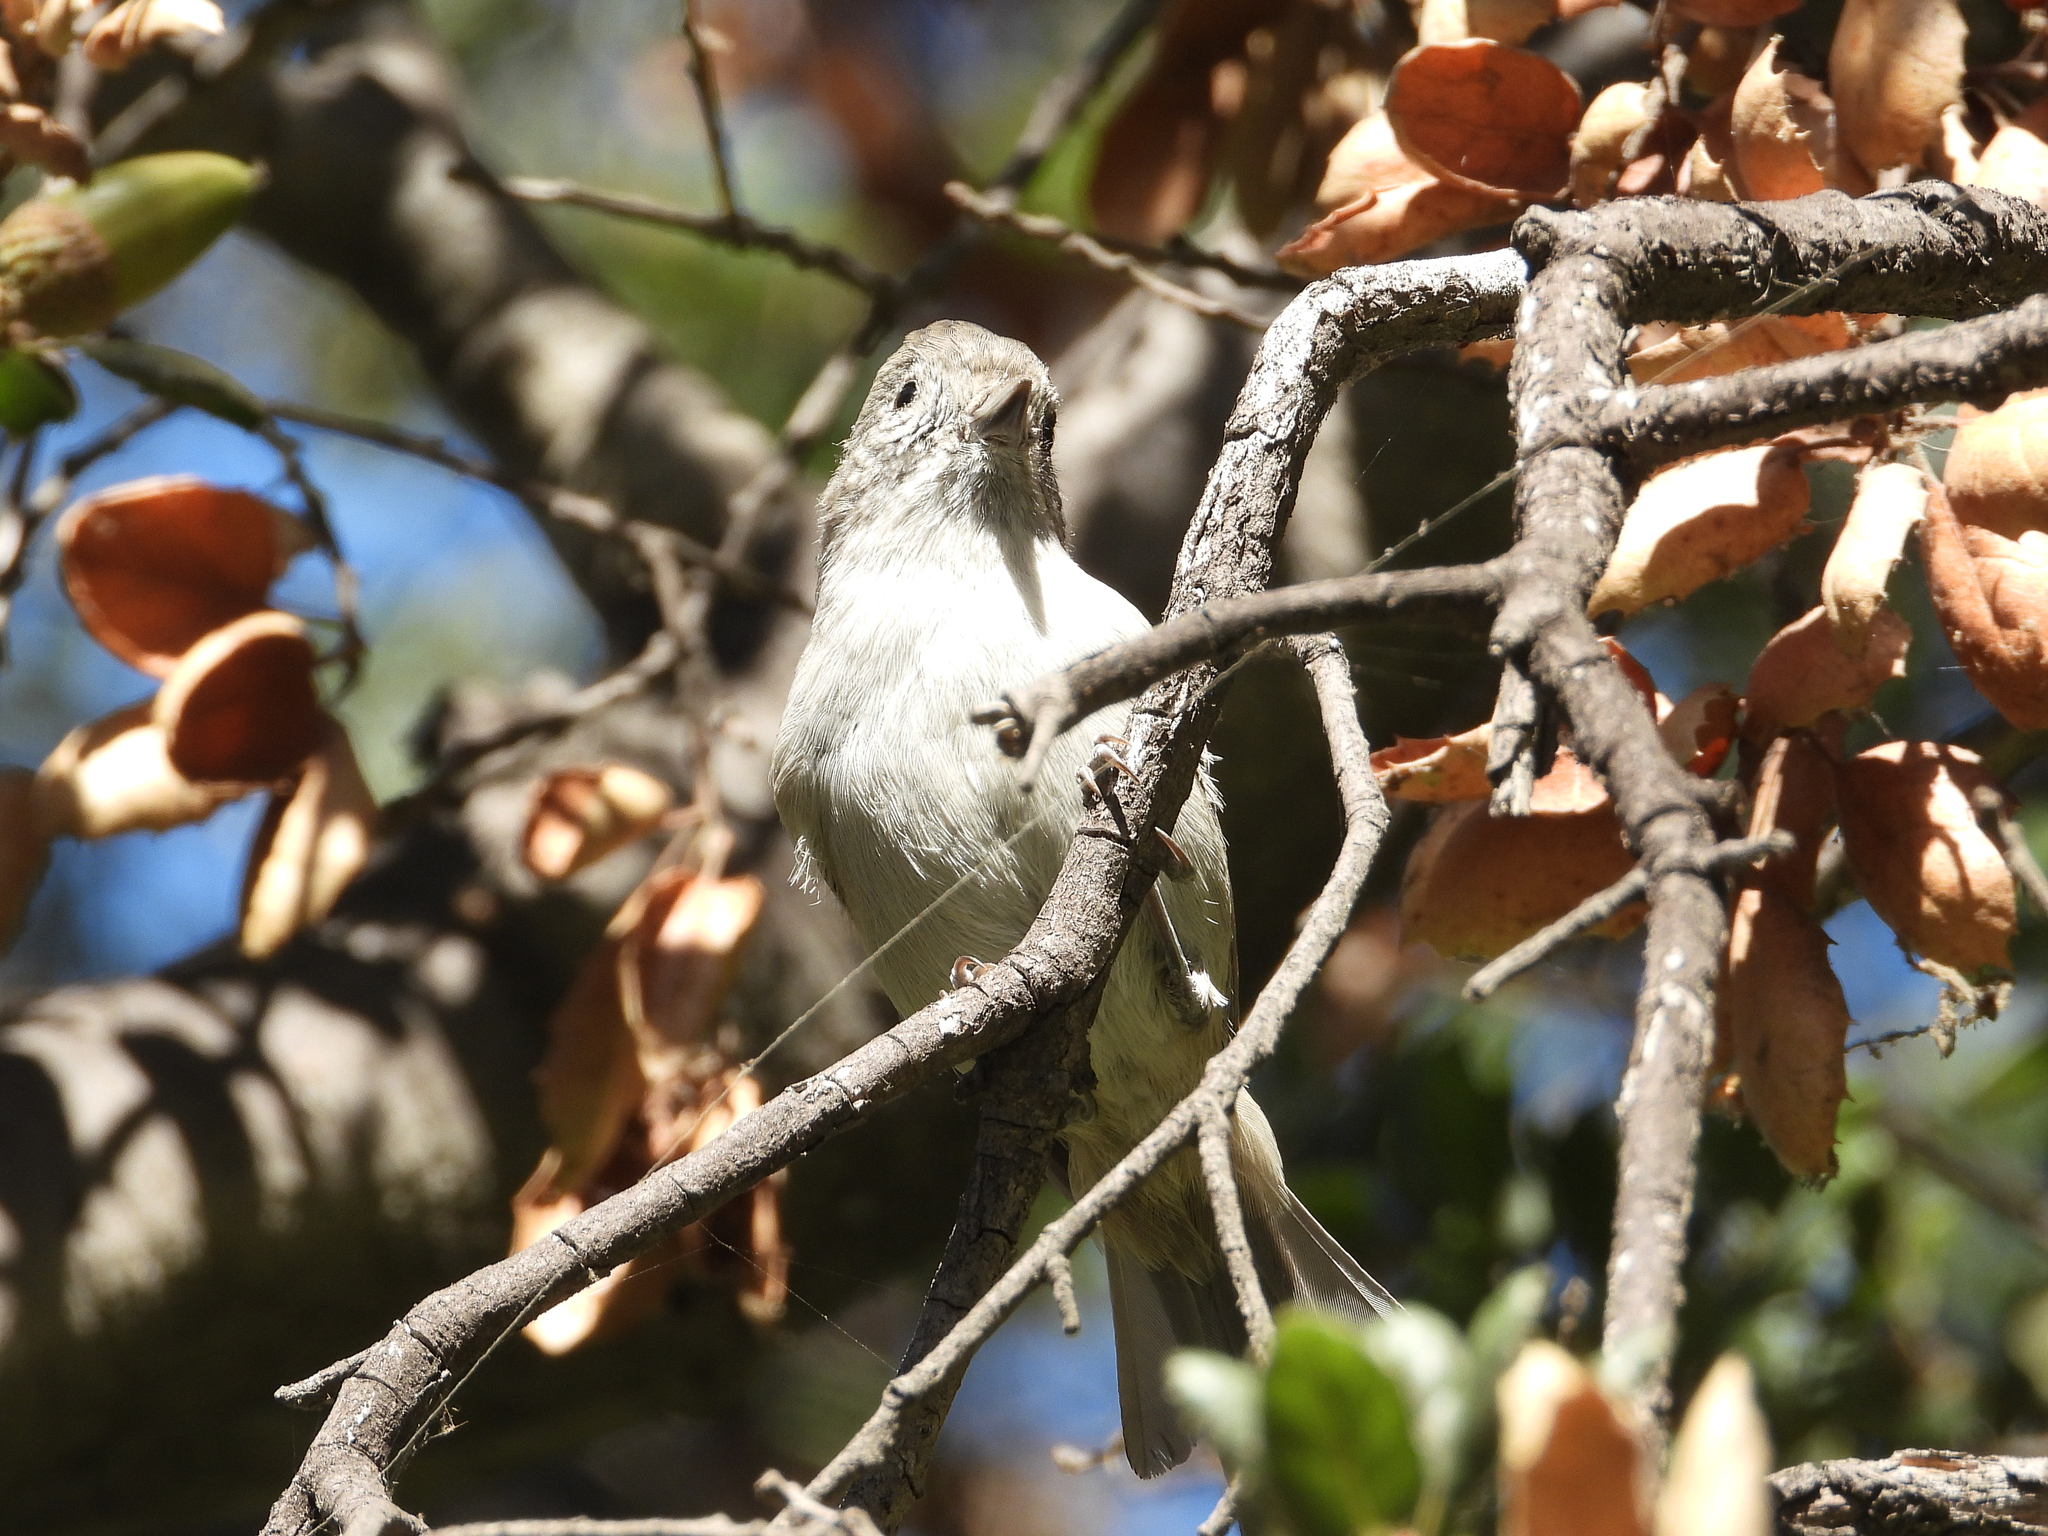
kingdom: Animalia
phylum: Chordata
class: Aves
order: Passeriformes
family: Paridae
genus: Baeolophus
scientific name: Baeolophus inornatus
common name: Oak titmouse
